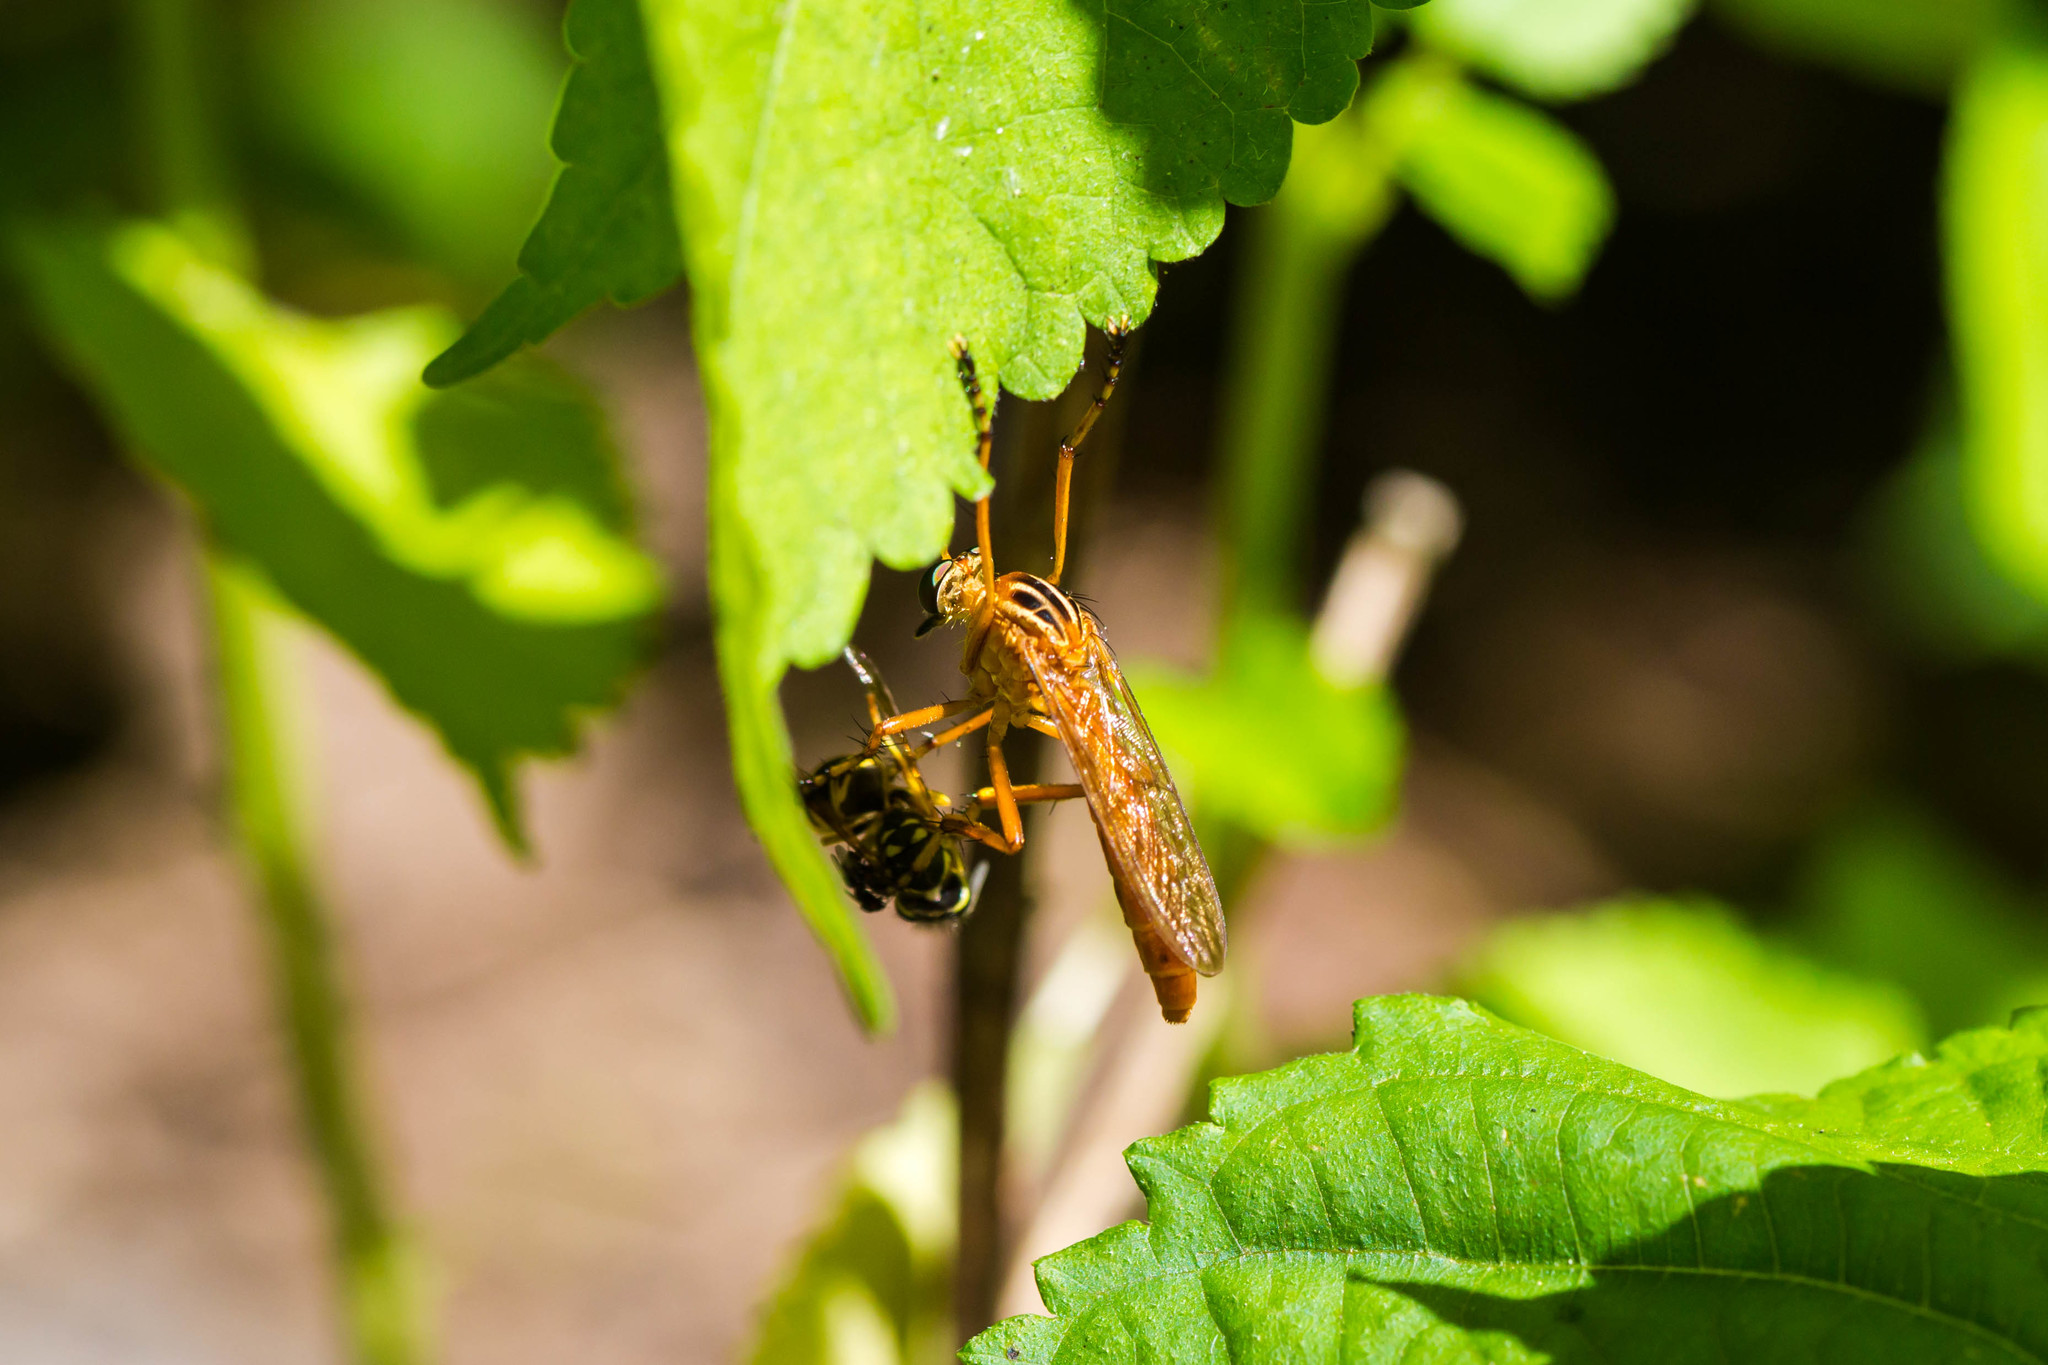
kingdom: Animalia
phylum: Arthropoda
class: Insecta
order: Diptera
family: Asilidae
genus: Diogmites
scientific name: Diogmites neoternatus
